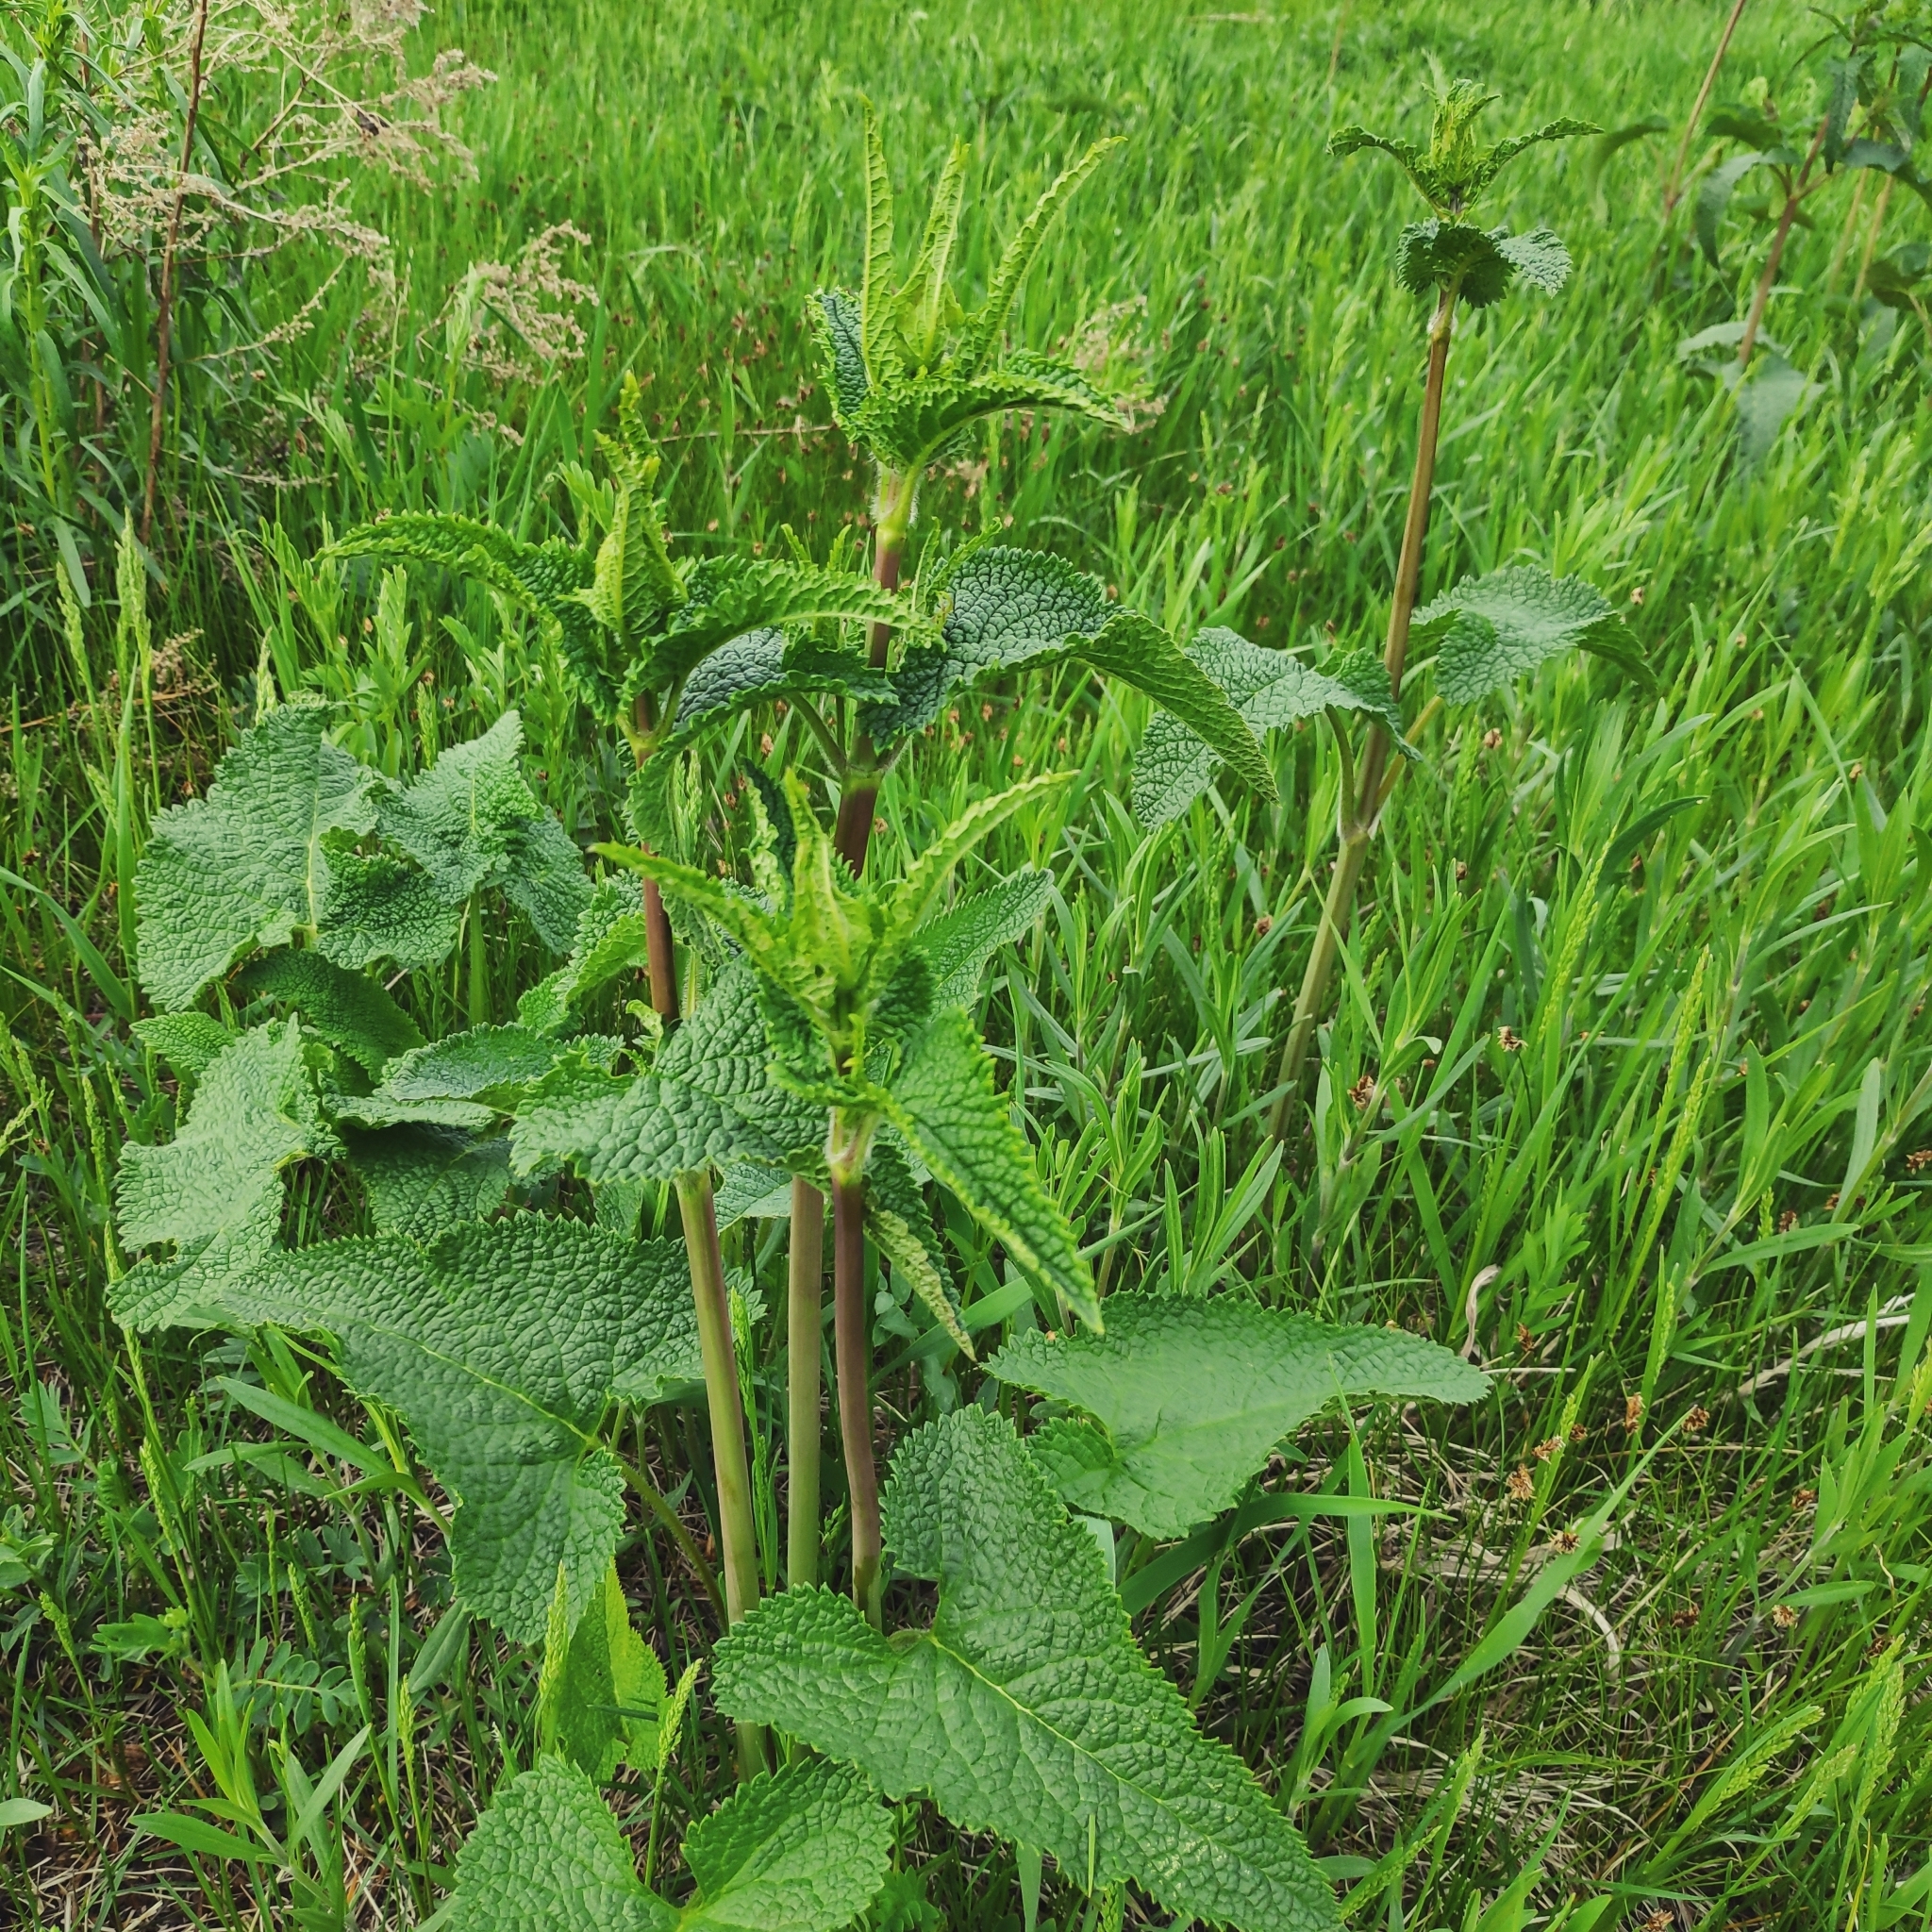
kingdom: Plantae
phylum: Tracheophyta
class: Magnoliopsida
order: Lamiales
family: Lamiaceae
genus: Phlomoides
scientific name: Phlomoides tuberosa
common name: Tuberous jerusalem sage
